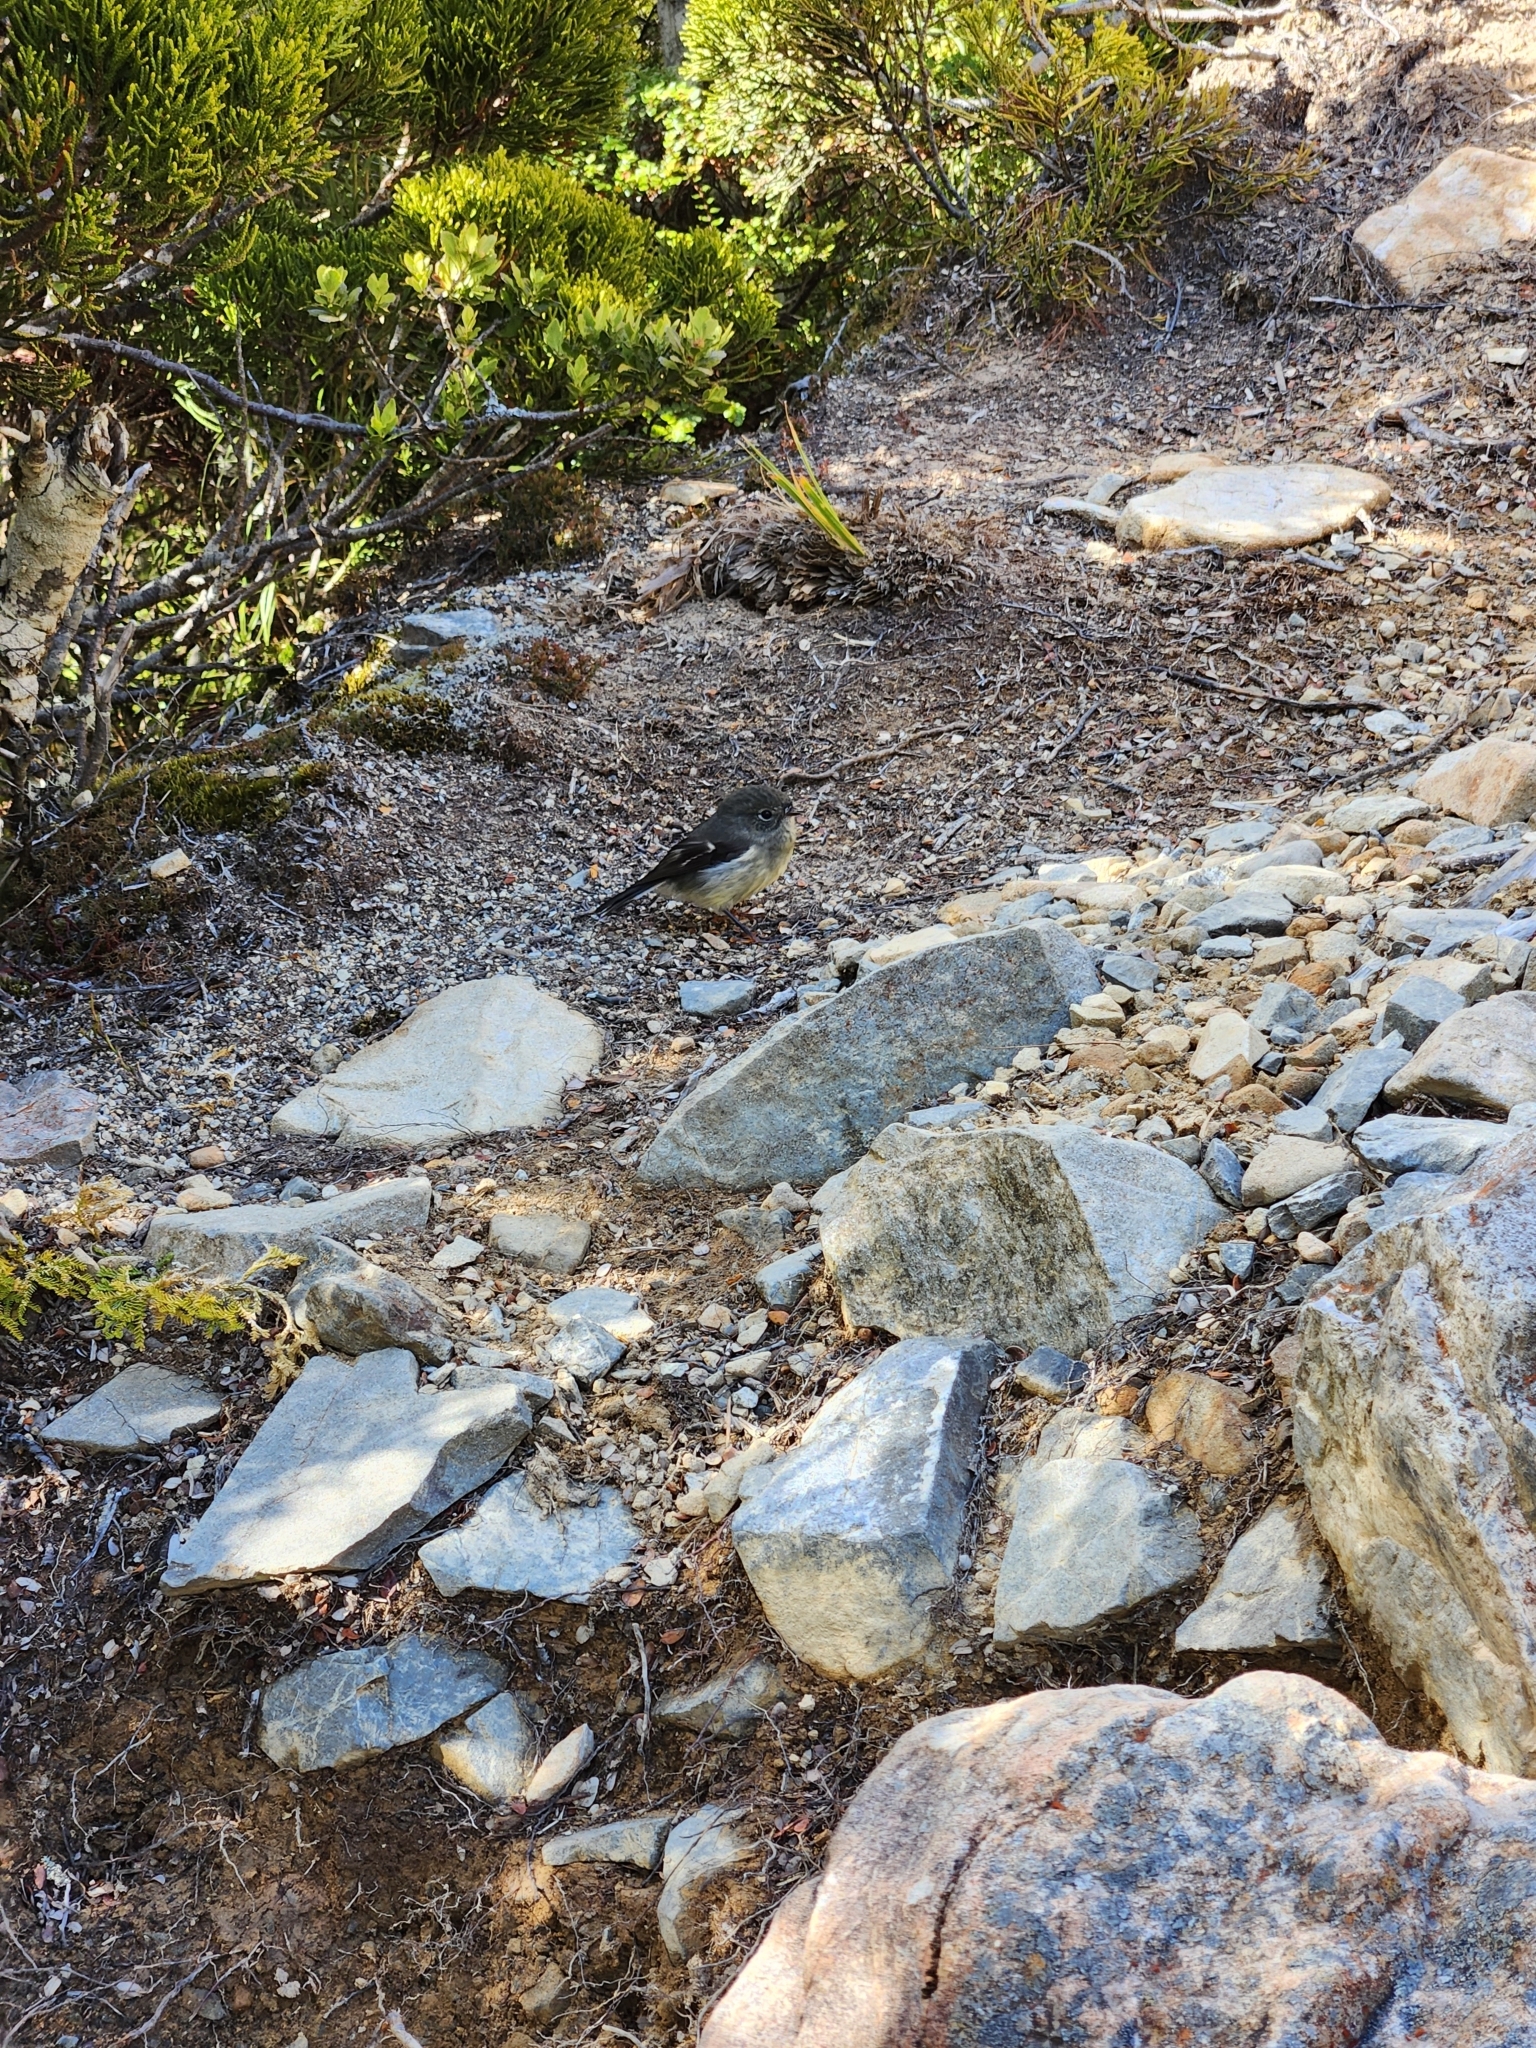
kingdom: Animalia
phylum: Chordata
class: Aves
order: Passeriformes
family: Petroicidae
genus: Petroica
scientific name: Petroica macrocephala
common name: Tomtit
